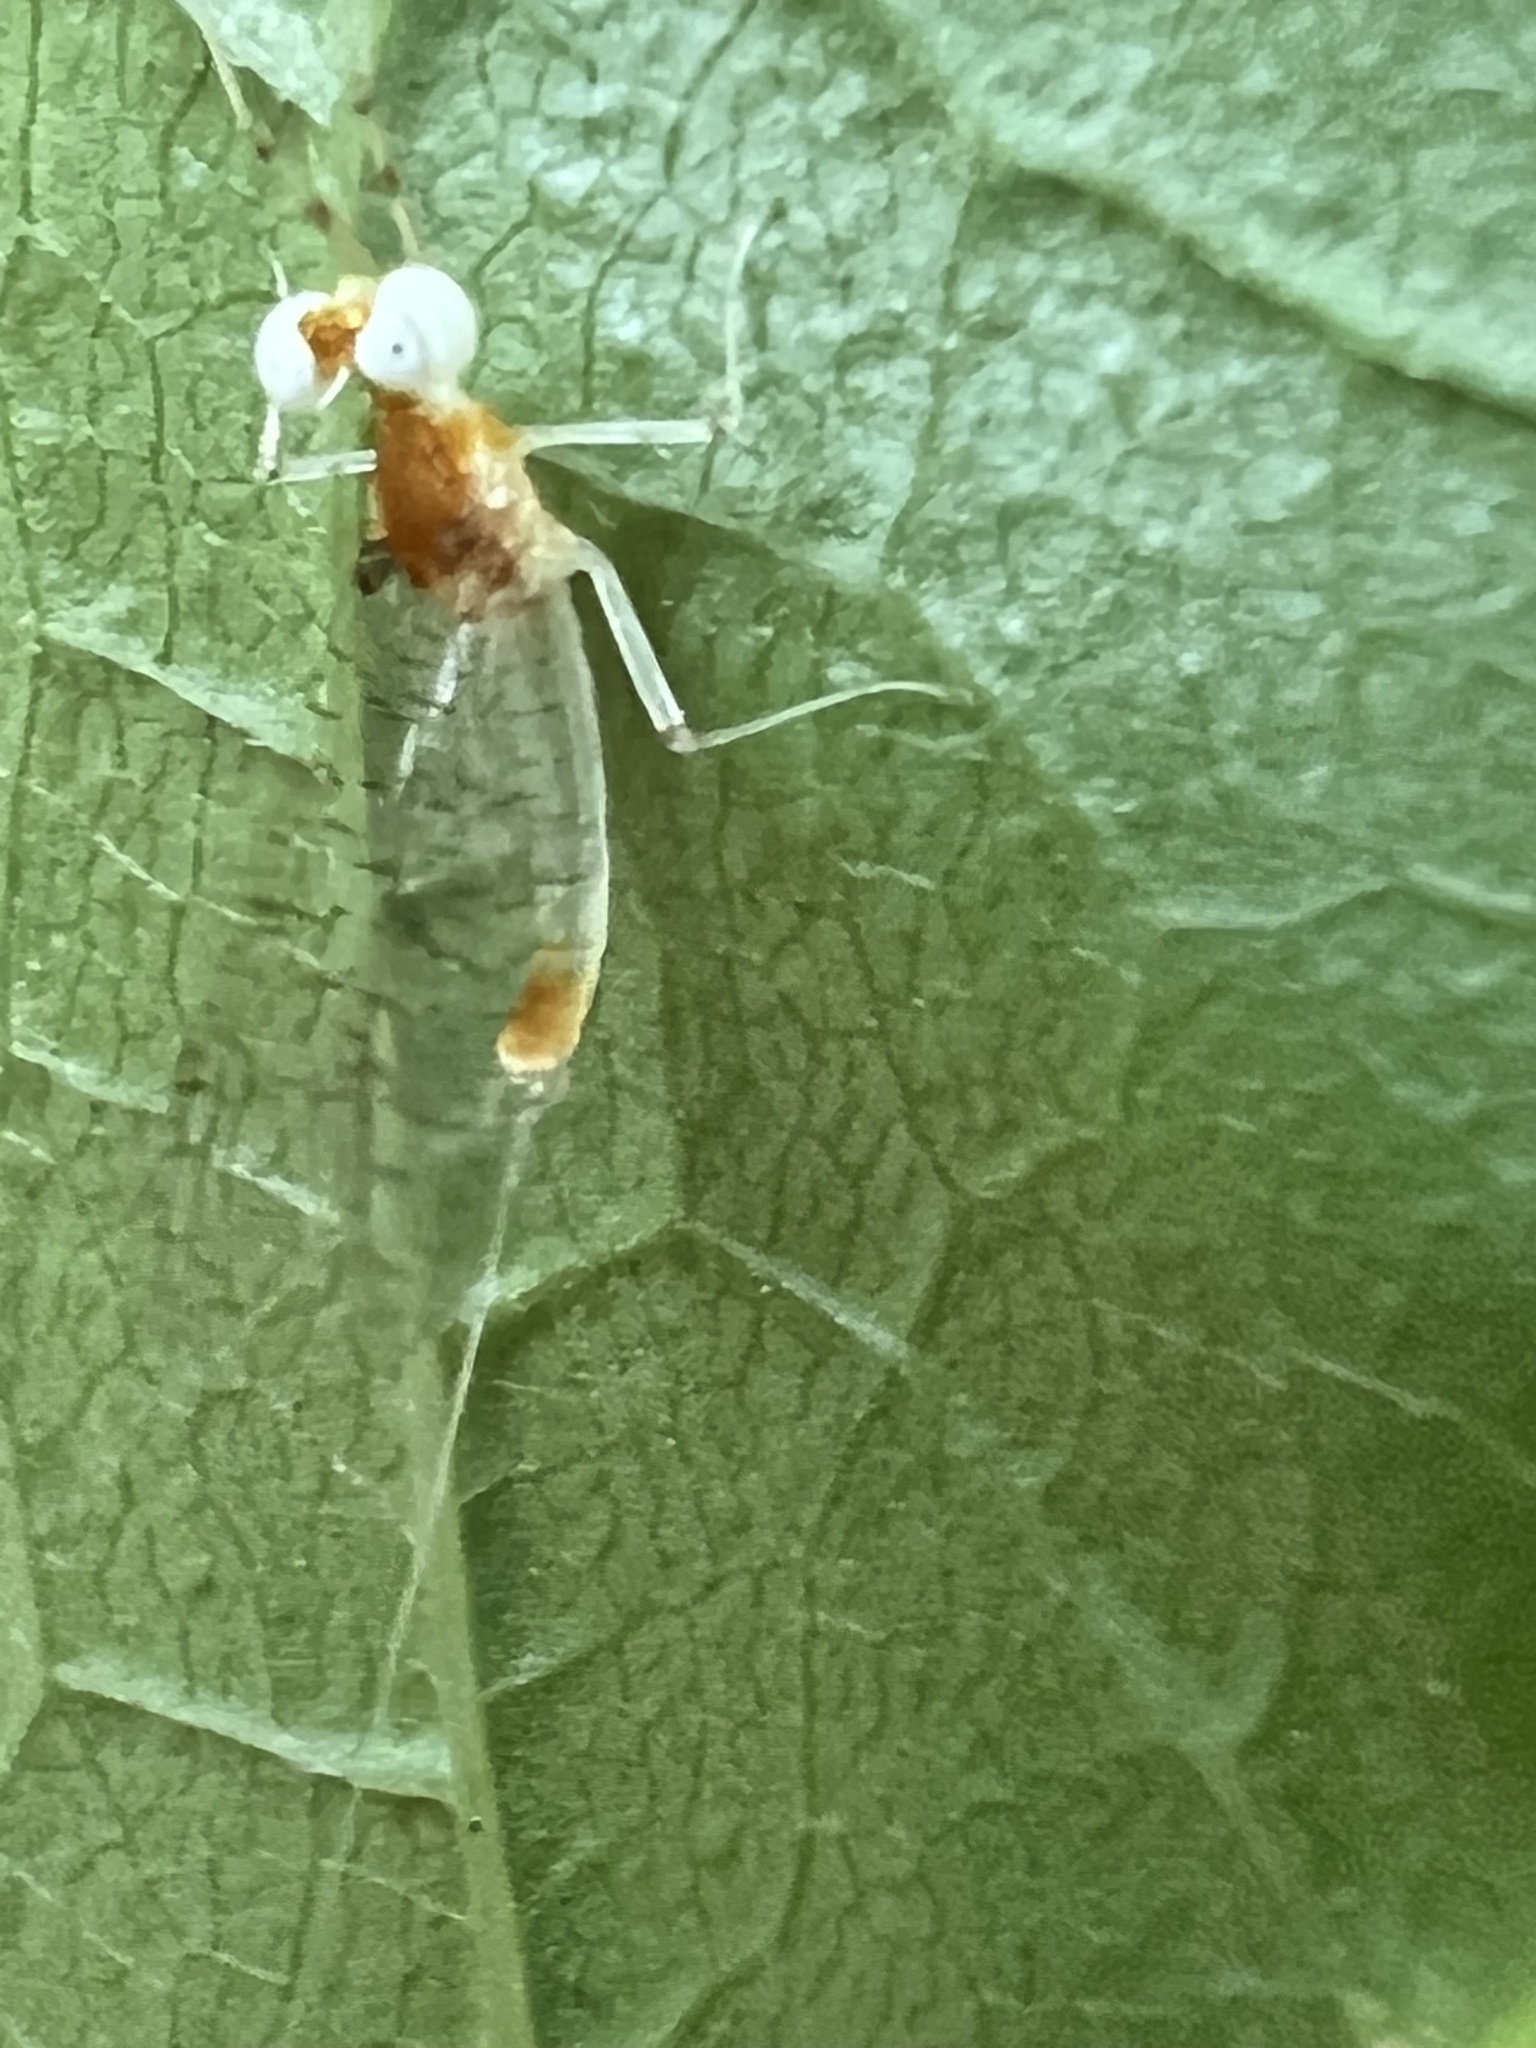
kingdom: Animalia
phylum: Arthropoda
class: Insecta
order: Ephemeroptera
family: Heptageniidae
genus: Maccaffertium
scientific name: Maccaffertium modestum
